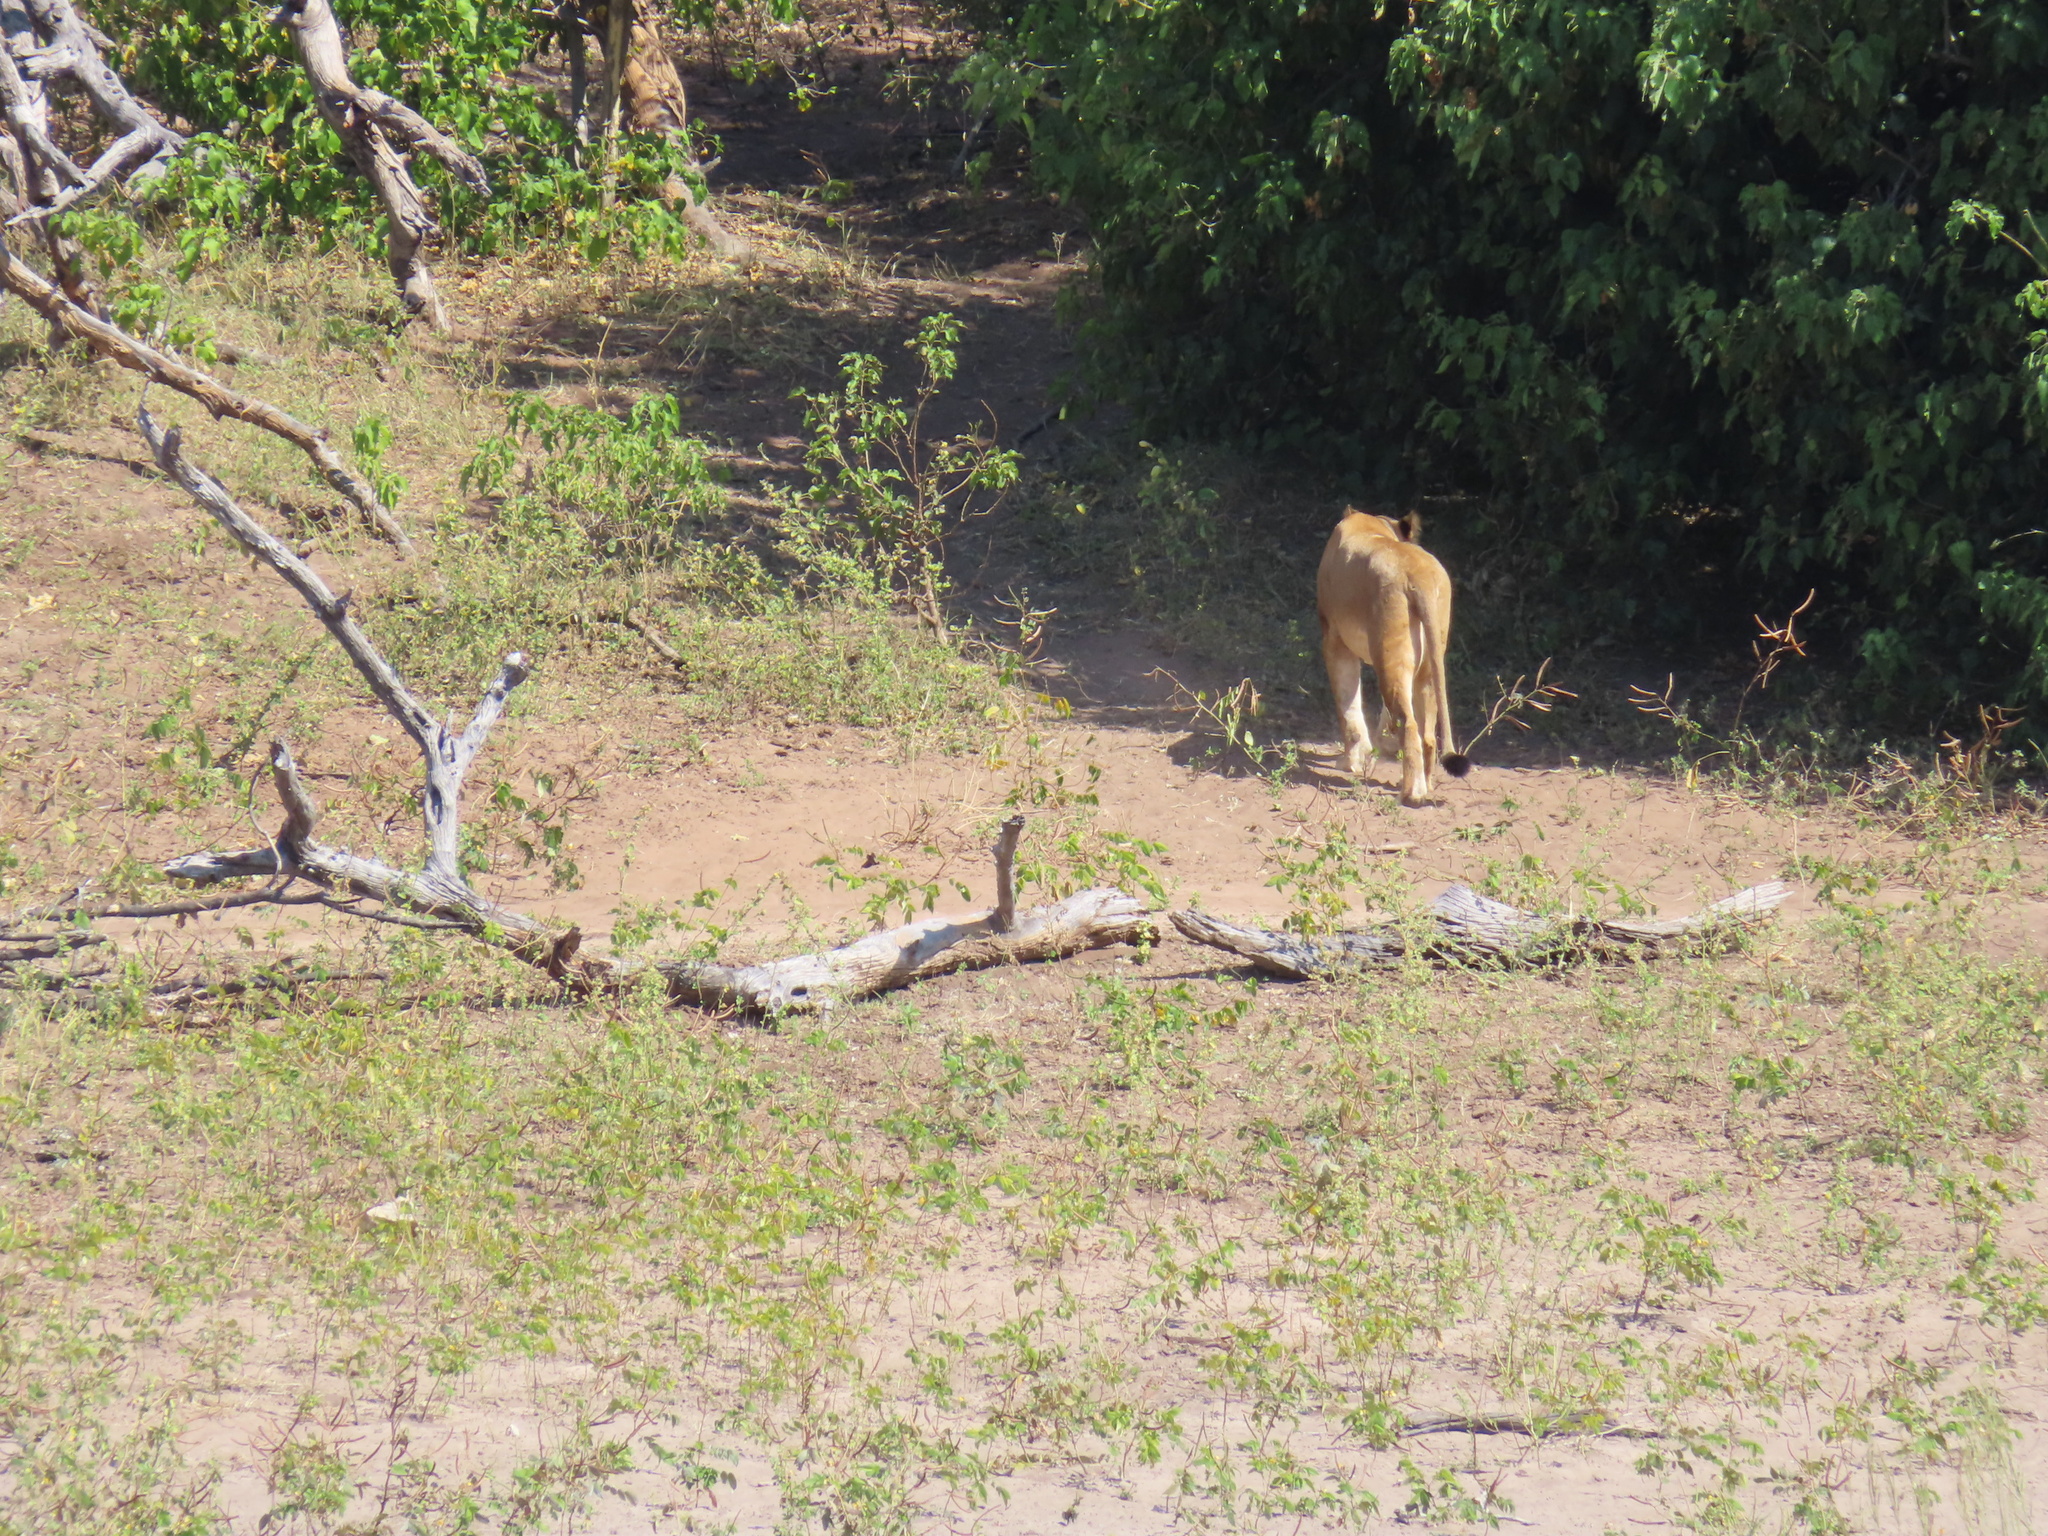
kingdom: Animalia
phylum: Chordata
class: Mammalia
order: Carnivora
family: Felidae
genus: Panthera
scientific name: Panthera leo
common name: Lion
